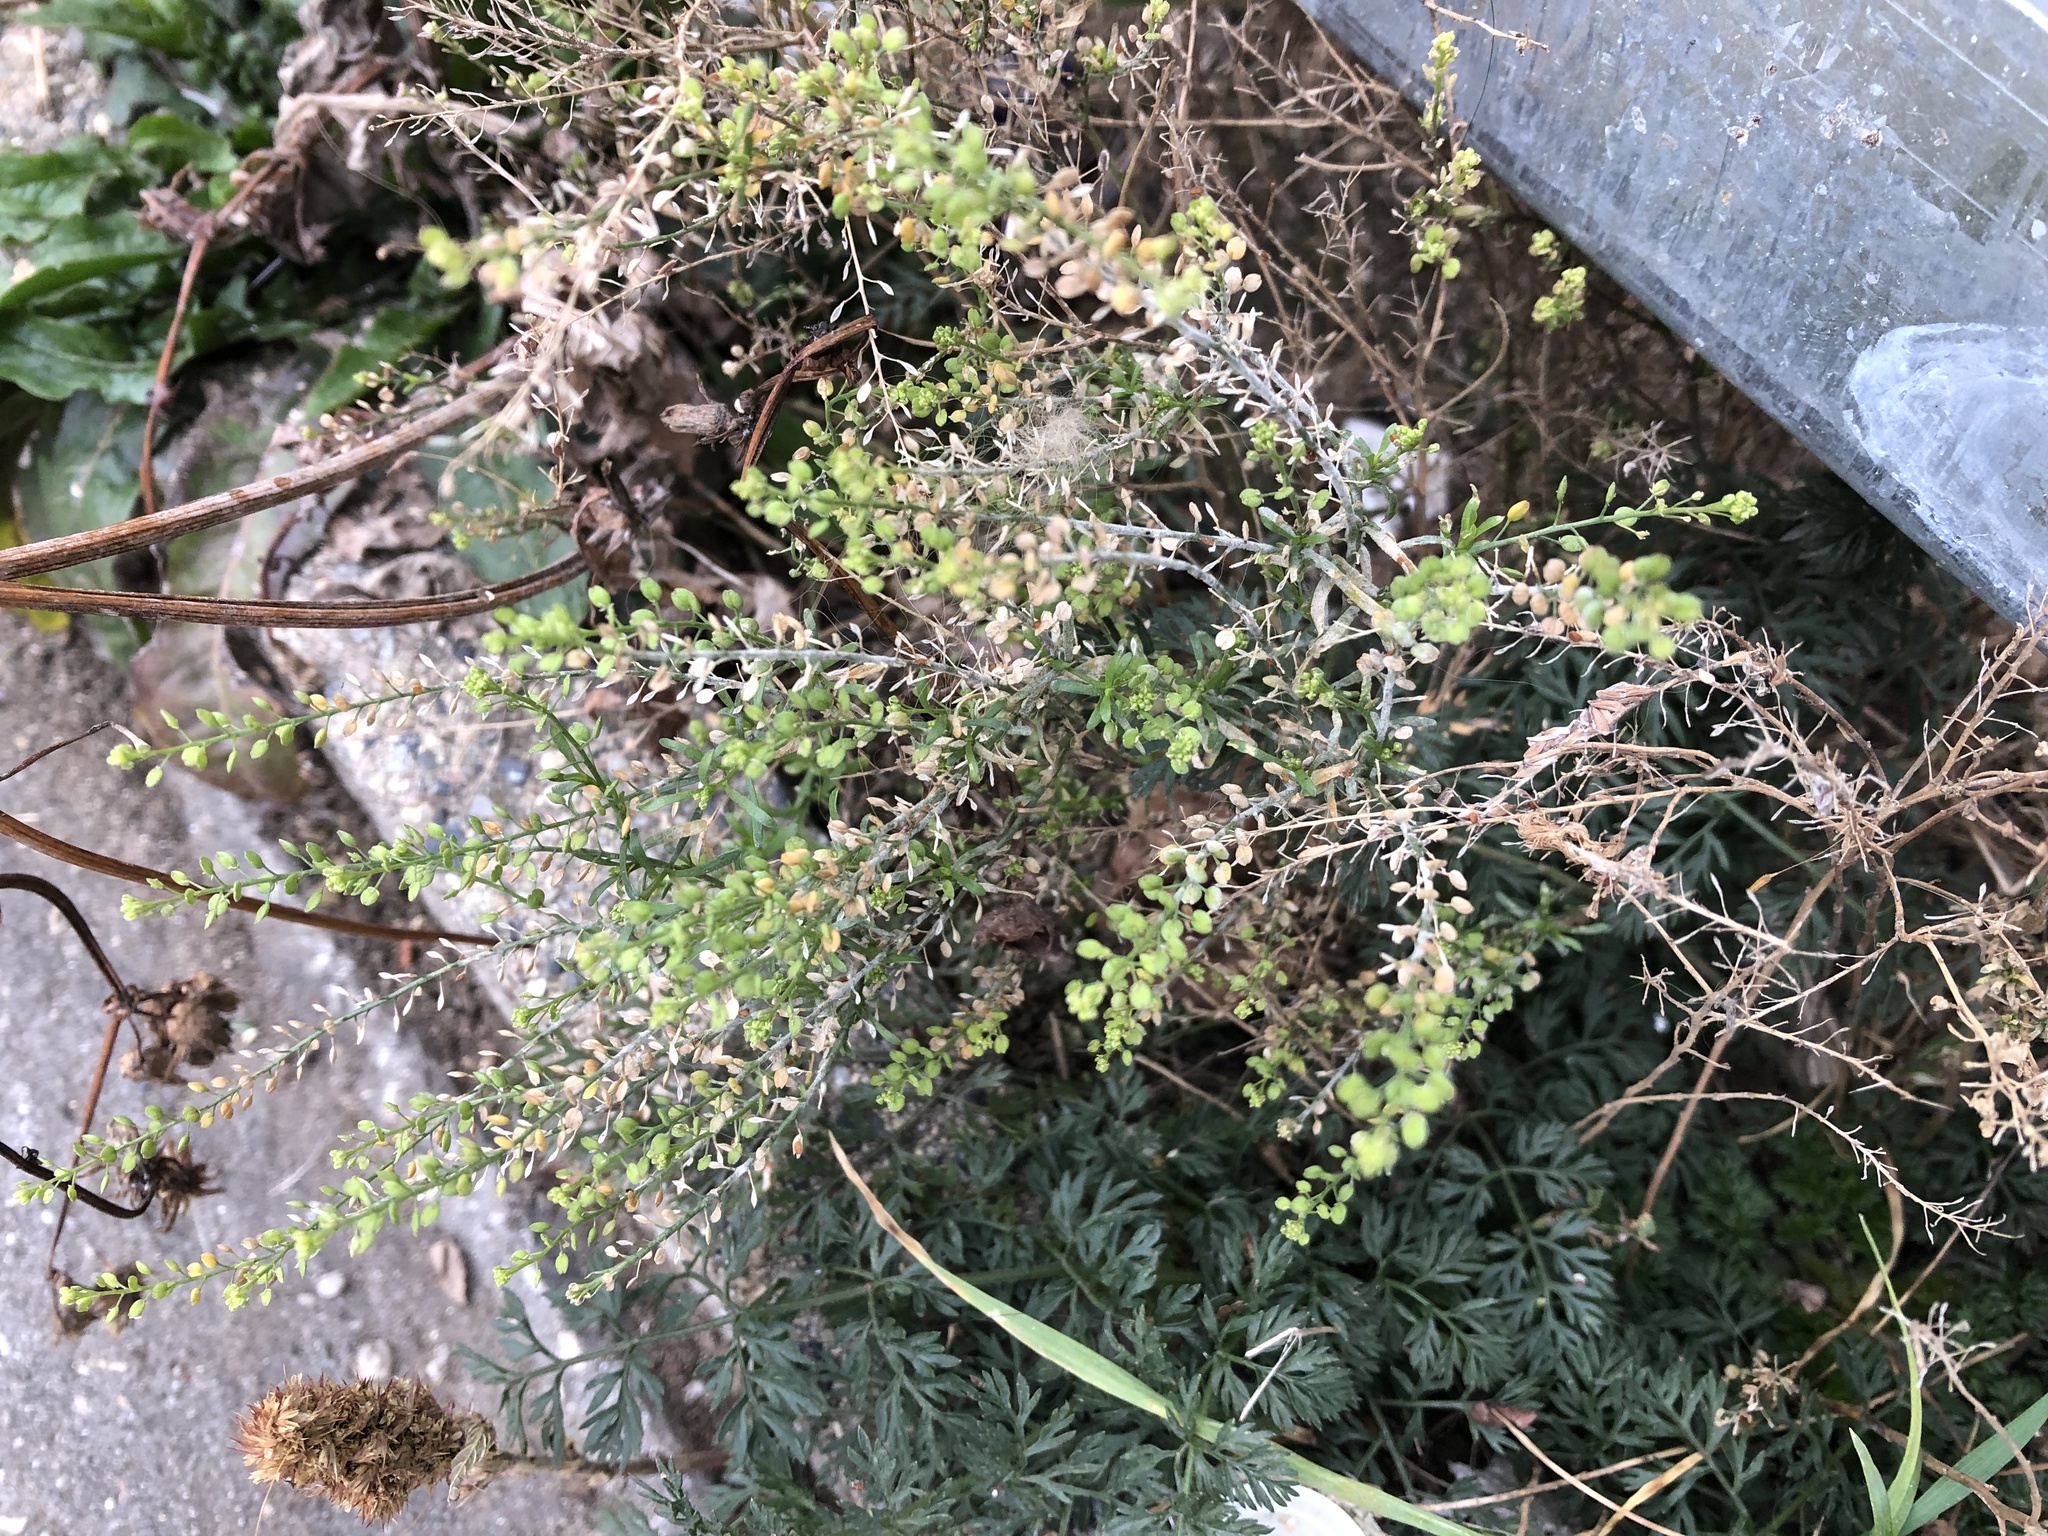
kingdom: Plantae
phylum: Tracheophyta
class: Magnoliopsida
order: Brassicales
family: Brassicaceae
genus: Lepidium
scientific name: Lepidium ruderale
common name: Narrow-leaved pepperwort
